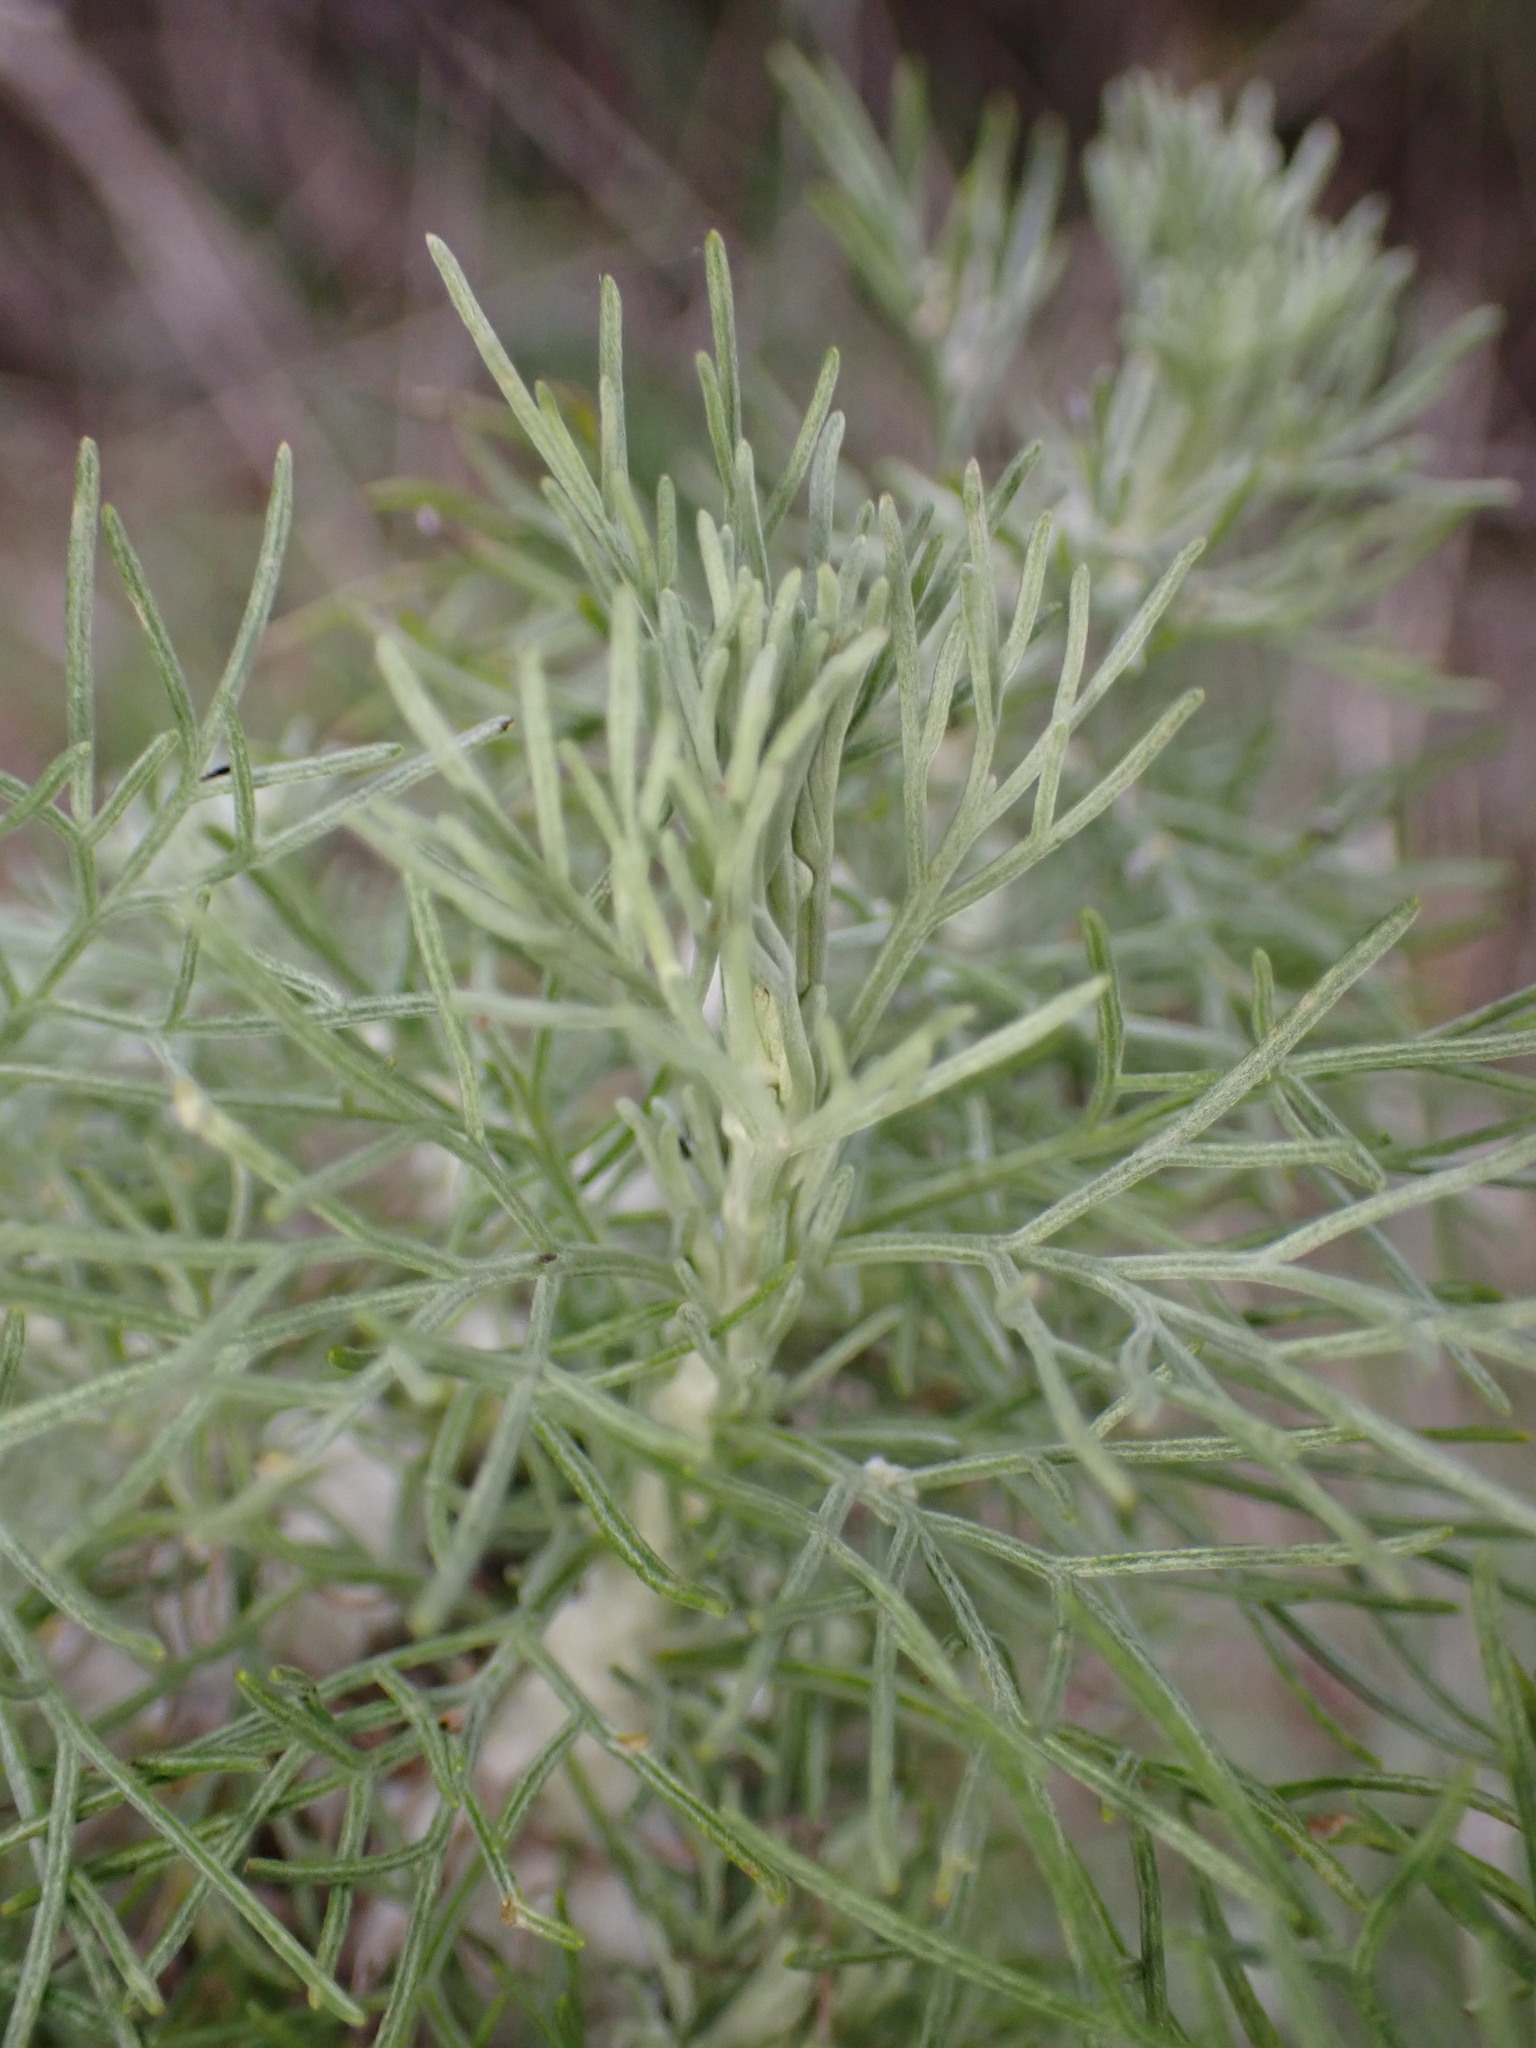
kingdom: Plantae
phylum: Tracheophyta
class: Magnoliopsida
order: Asterales
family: Asteraceae
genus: Artemisia
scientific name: Artemisia californica
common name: California sagebrush
